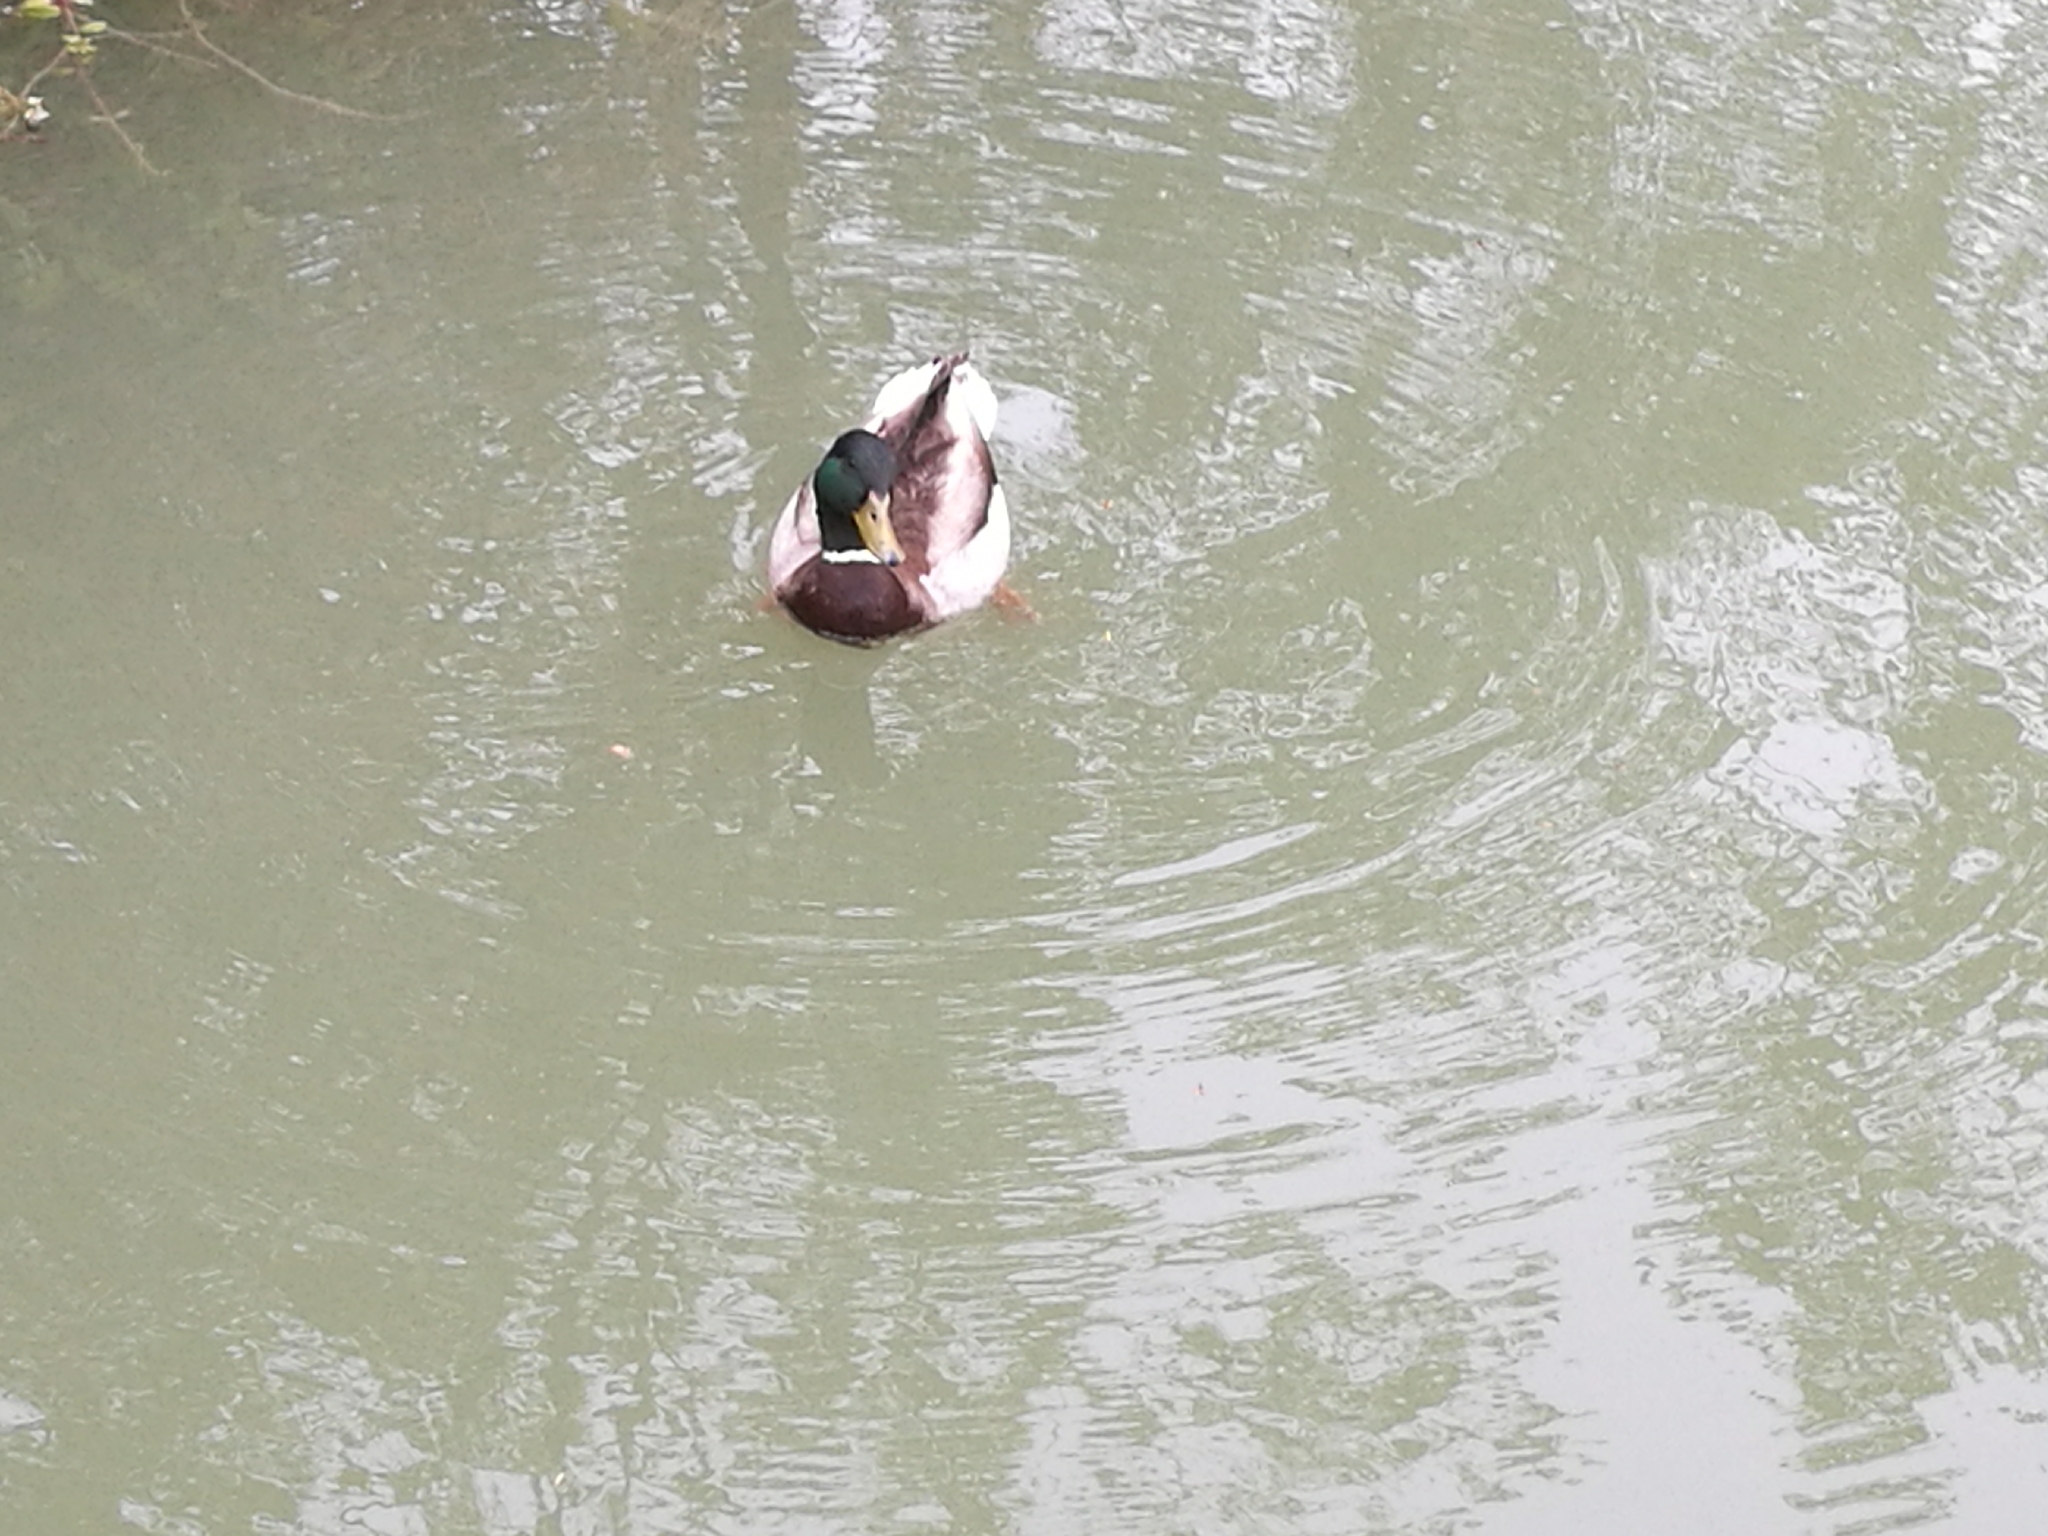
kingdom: Animalia
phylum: Chordata
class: Aves
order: Anseriformes
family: Anatidae
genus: Anas
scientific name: Anas platyrhynchos
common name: Mallard
